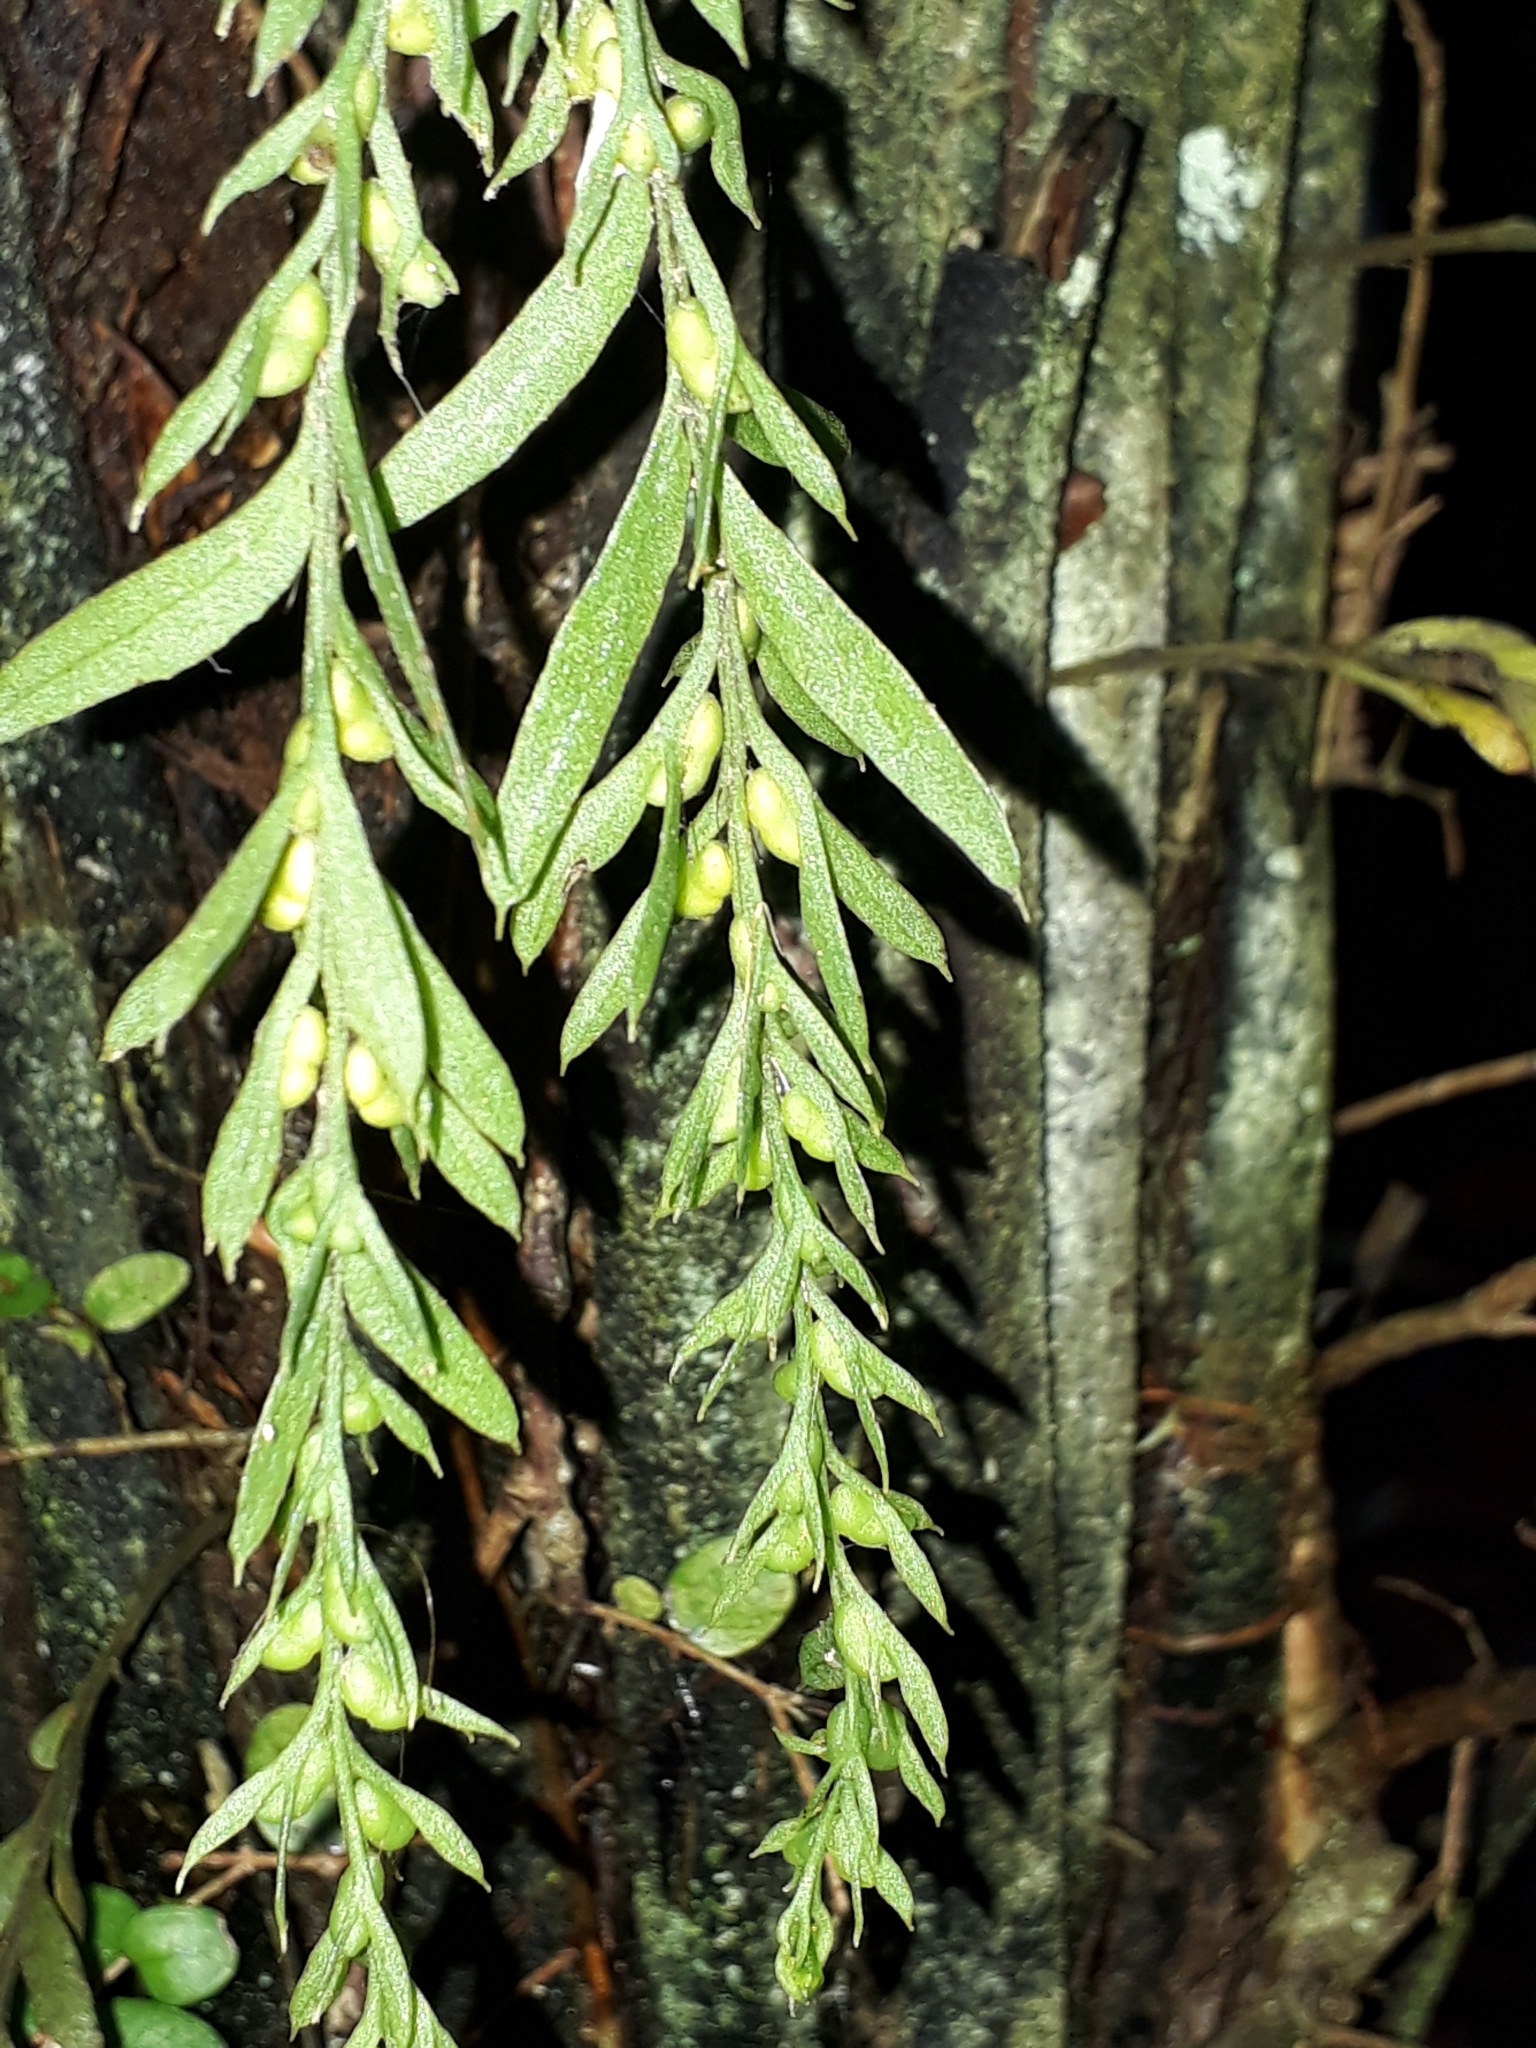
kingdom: Plantae
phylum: Tracheophyta
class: Polypodiopsida
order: Psilotales
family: Psilotaceae
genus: Tmesipteris
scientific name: Tmesipteris elongata
